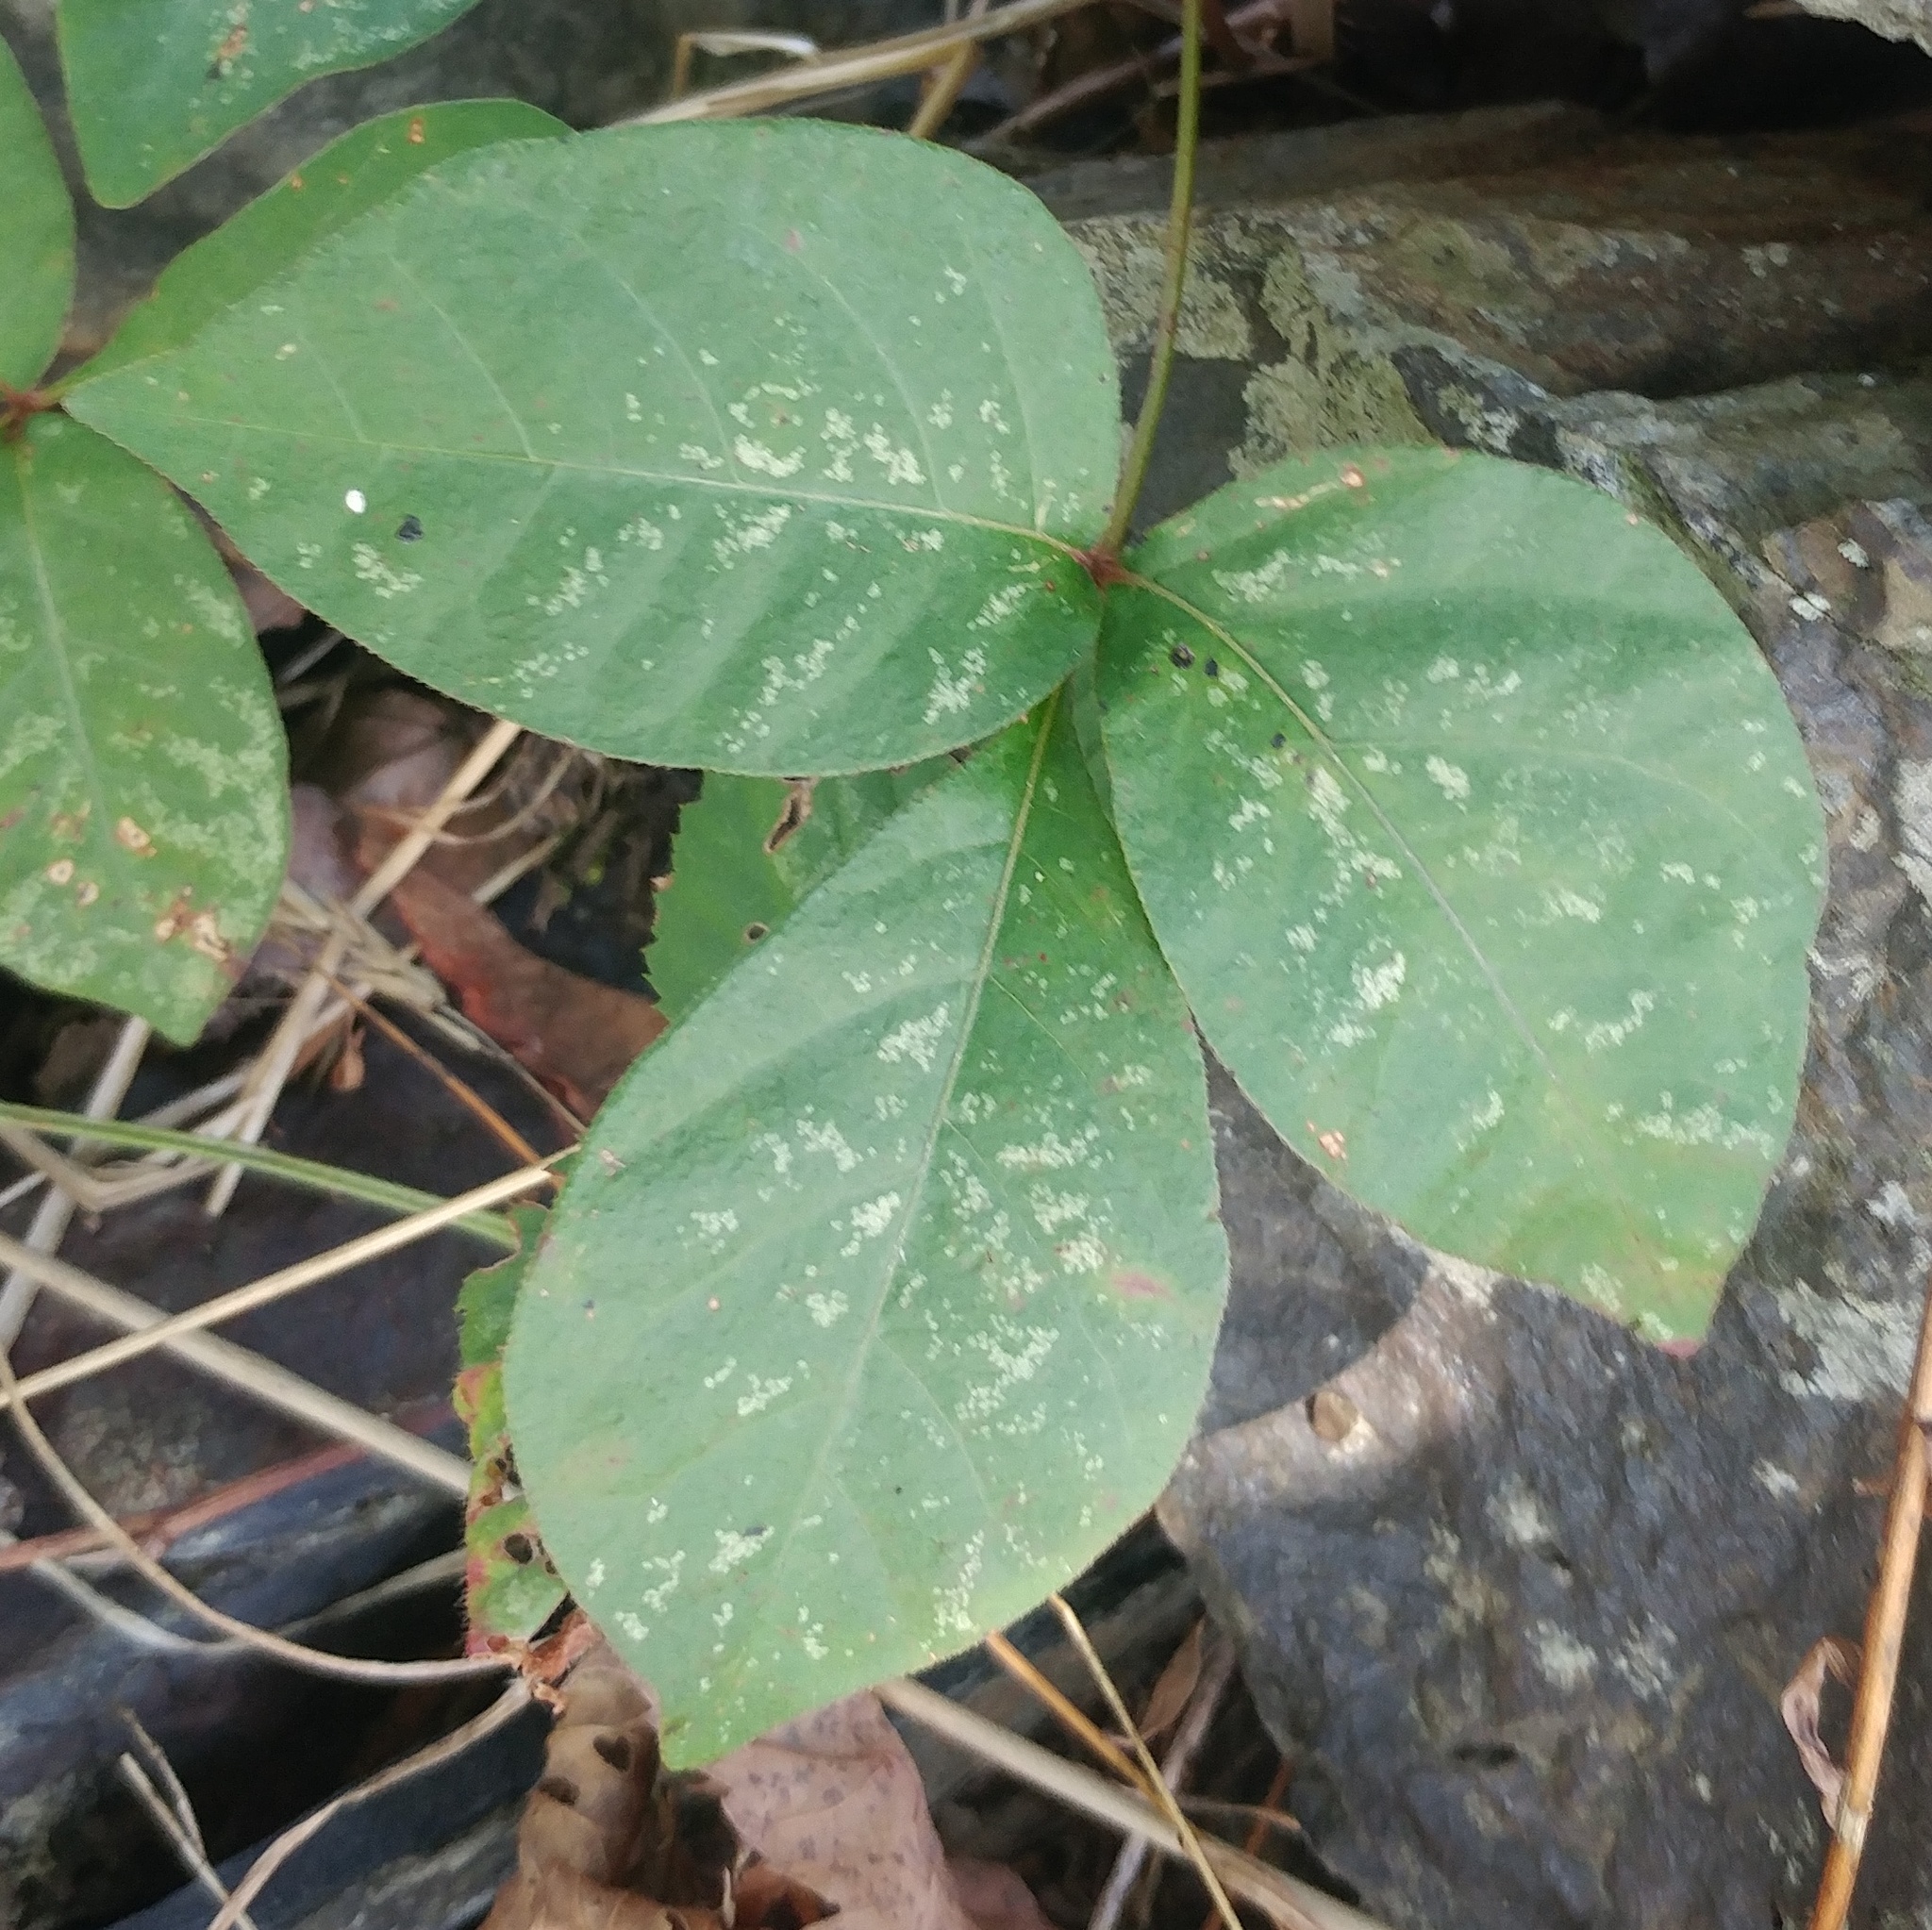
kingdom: Plantae
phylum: Tracheophyta
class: Magnoliopsida
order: Sapindales
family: Anacardiaceae
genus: Toxicodendron
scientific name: Toxicodendron radicans
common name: Poison ivy
